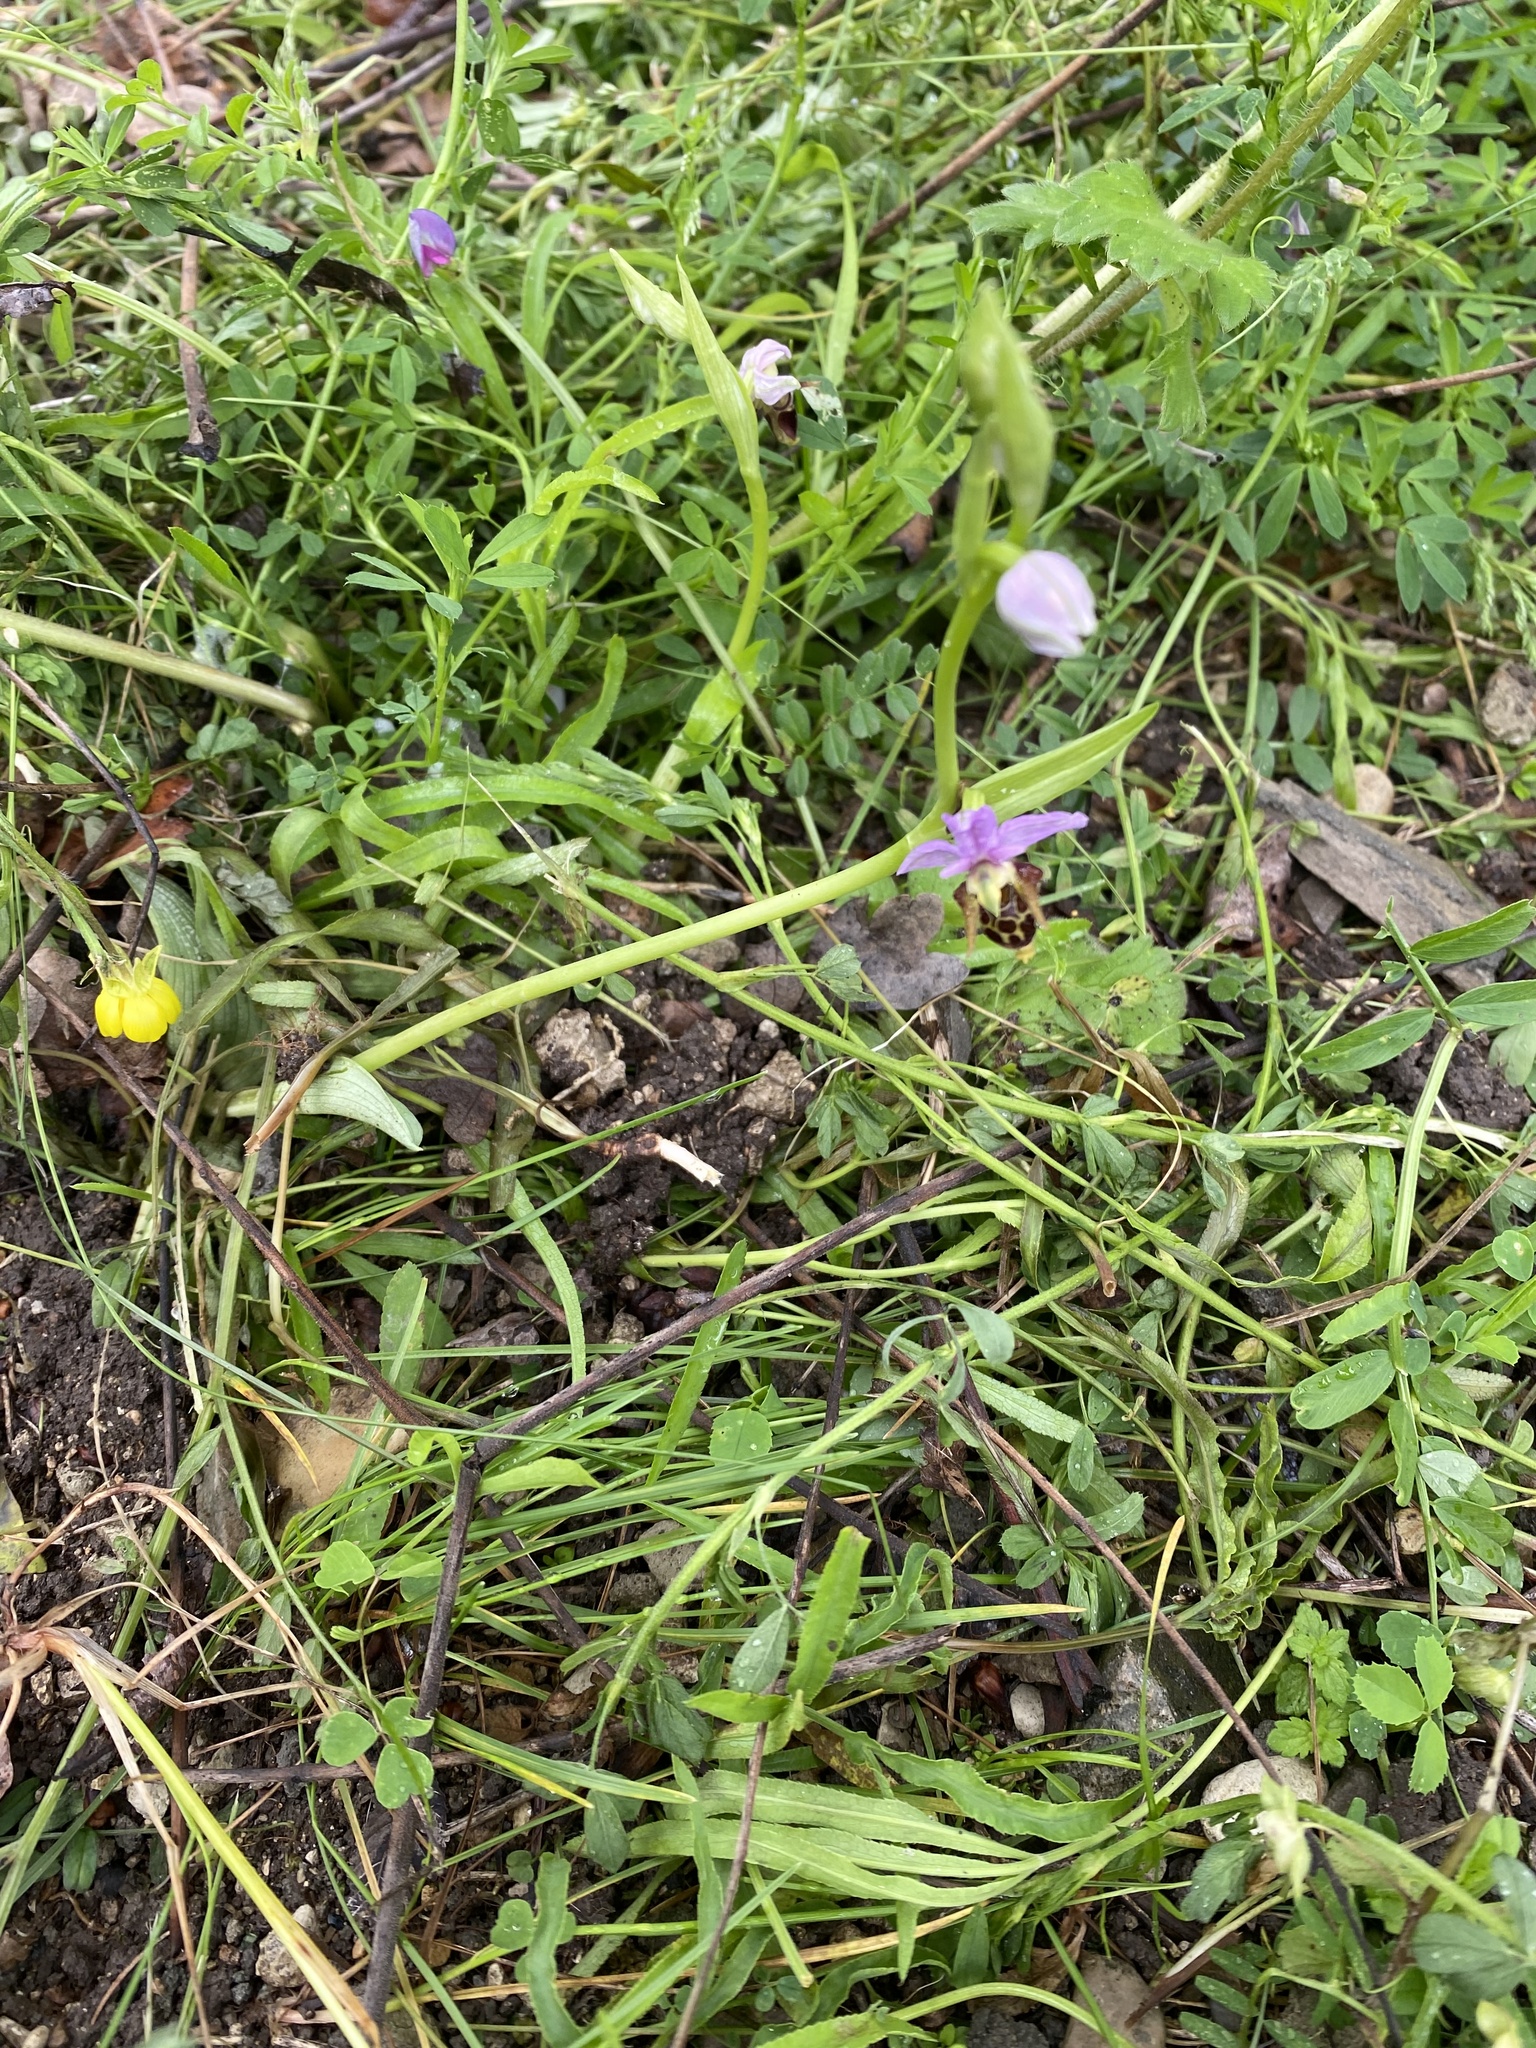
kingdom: Plantae
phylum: Tracheophyta
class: Liliopsida
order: Asparagales
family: Orchidaceae
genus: Ophrys
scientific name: Ophrys
